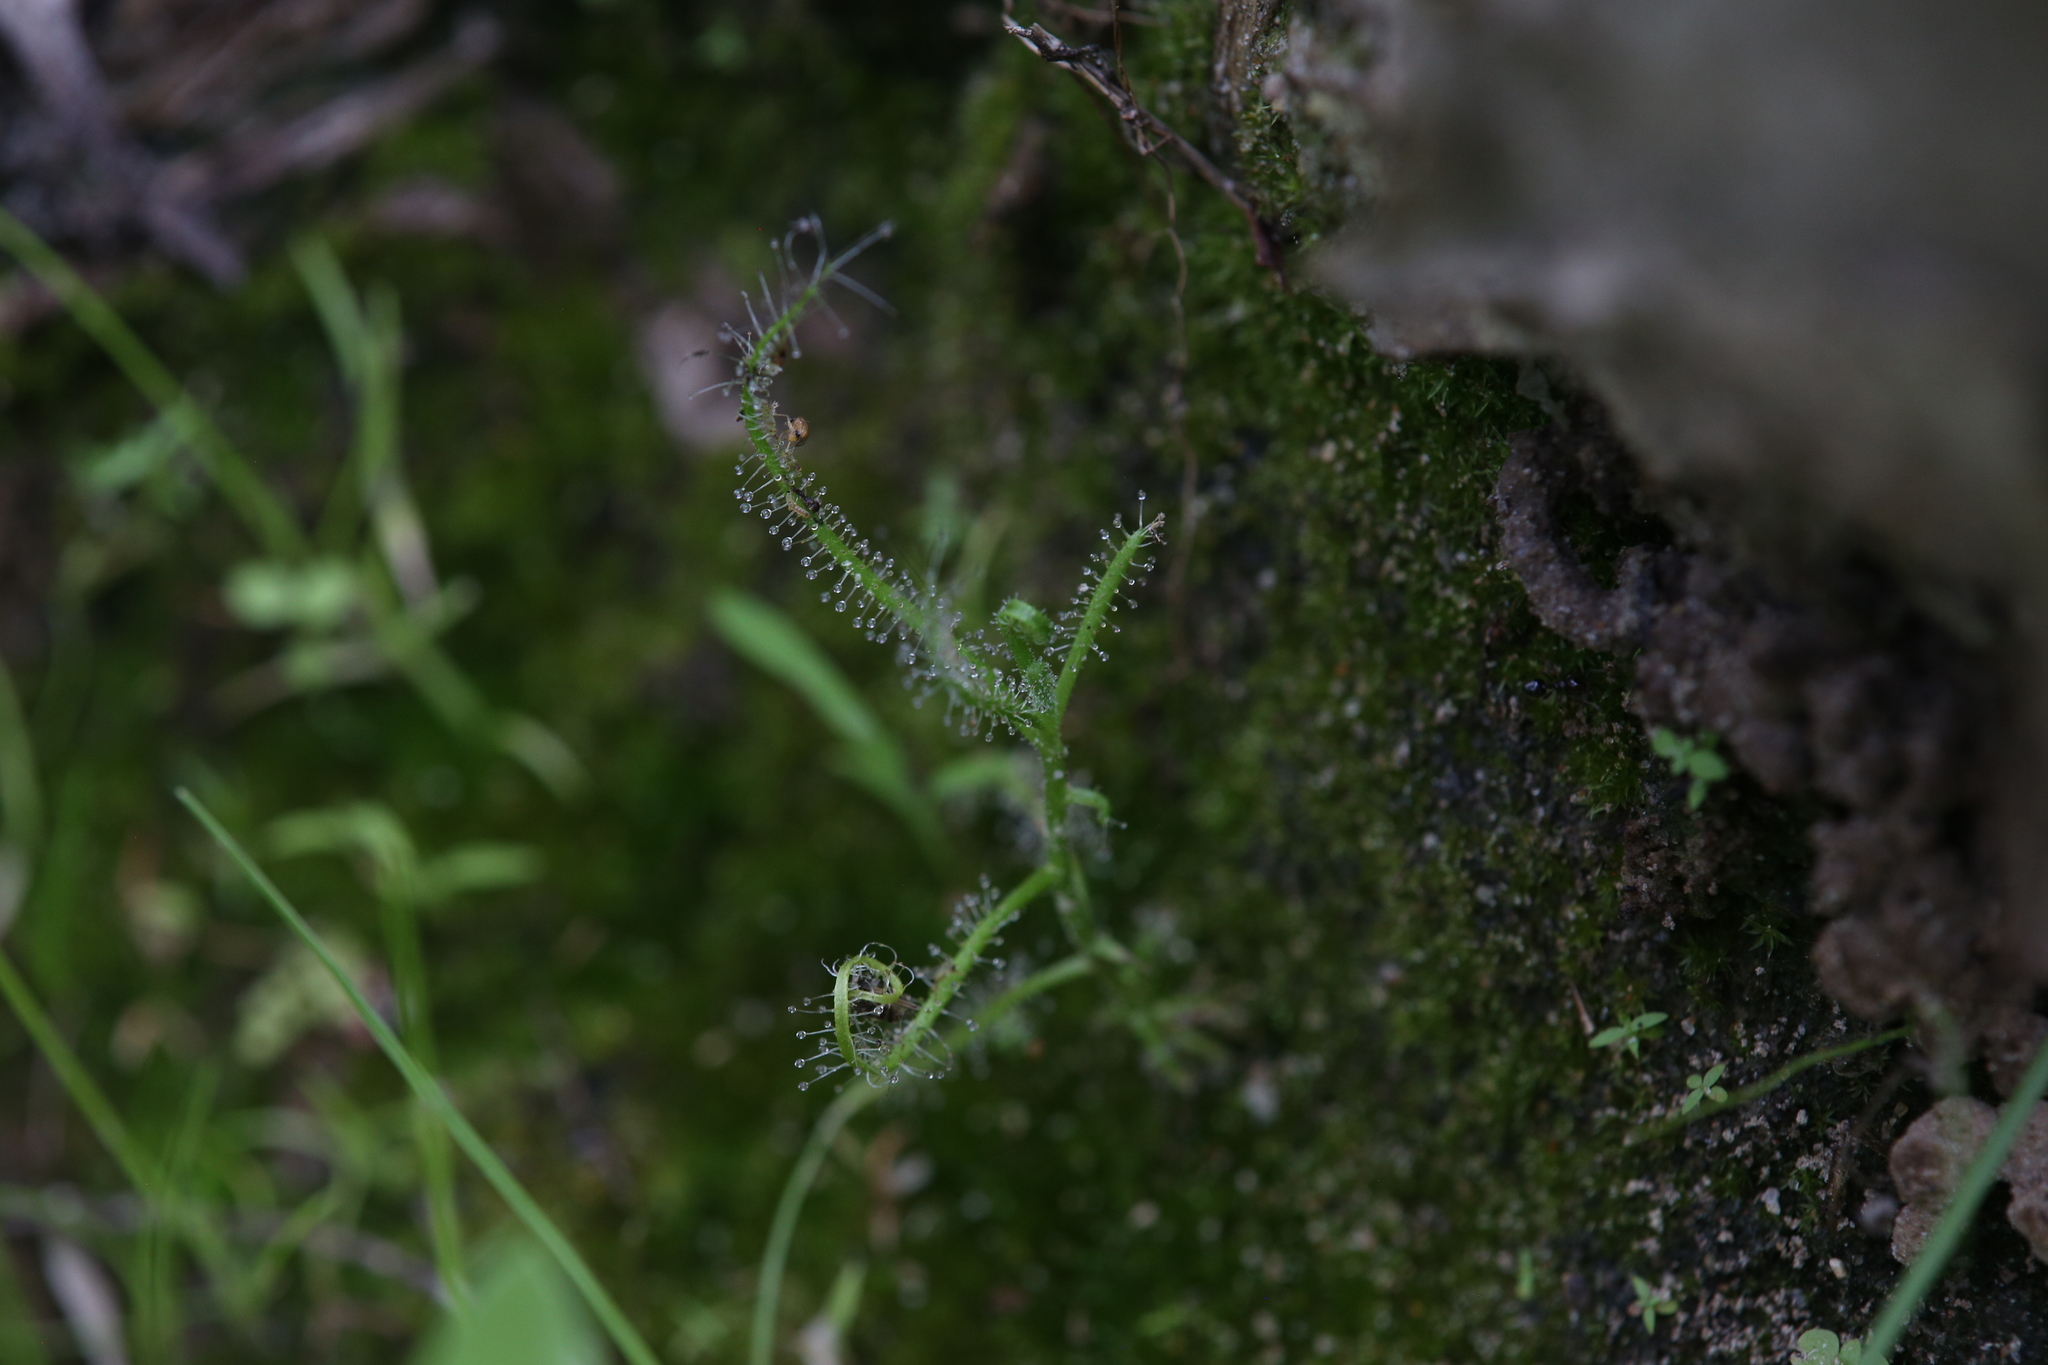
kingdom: Plantae
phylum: Tracheophyta
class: Magnoliopsida
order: Caryophyllales
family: Droseraceae
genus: Drosera
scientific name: Drosera indica
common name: Indian sundew
